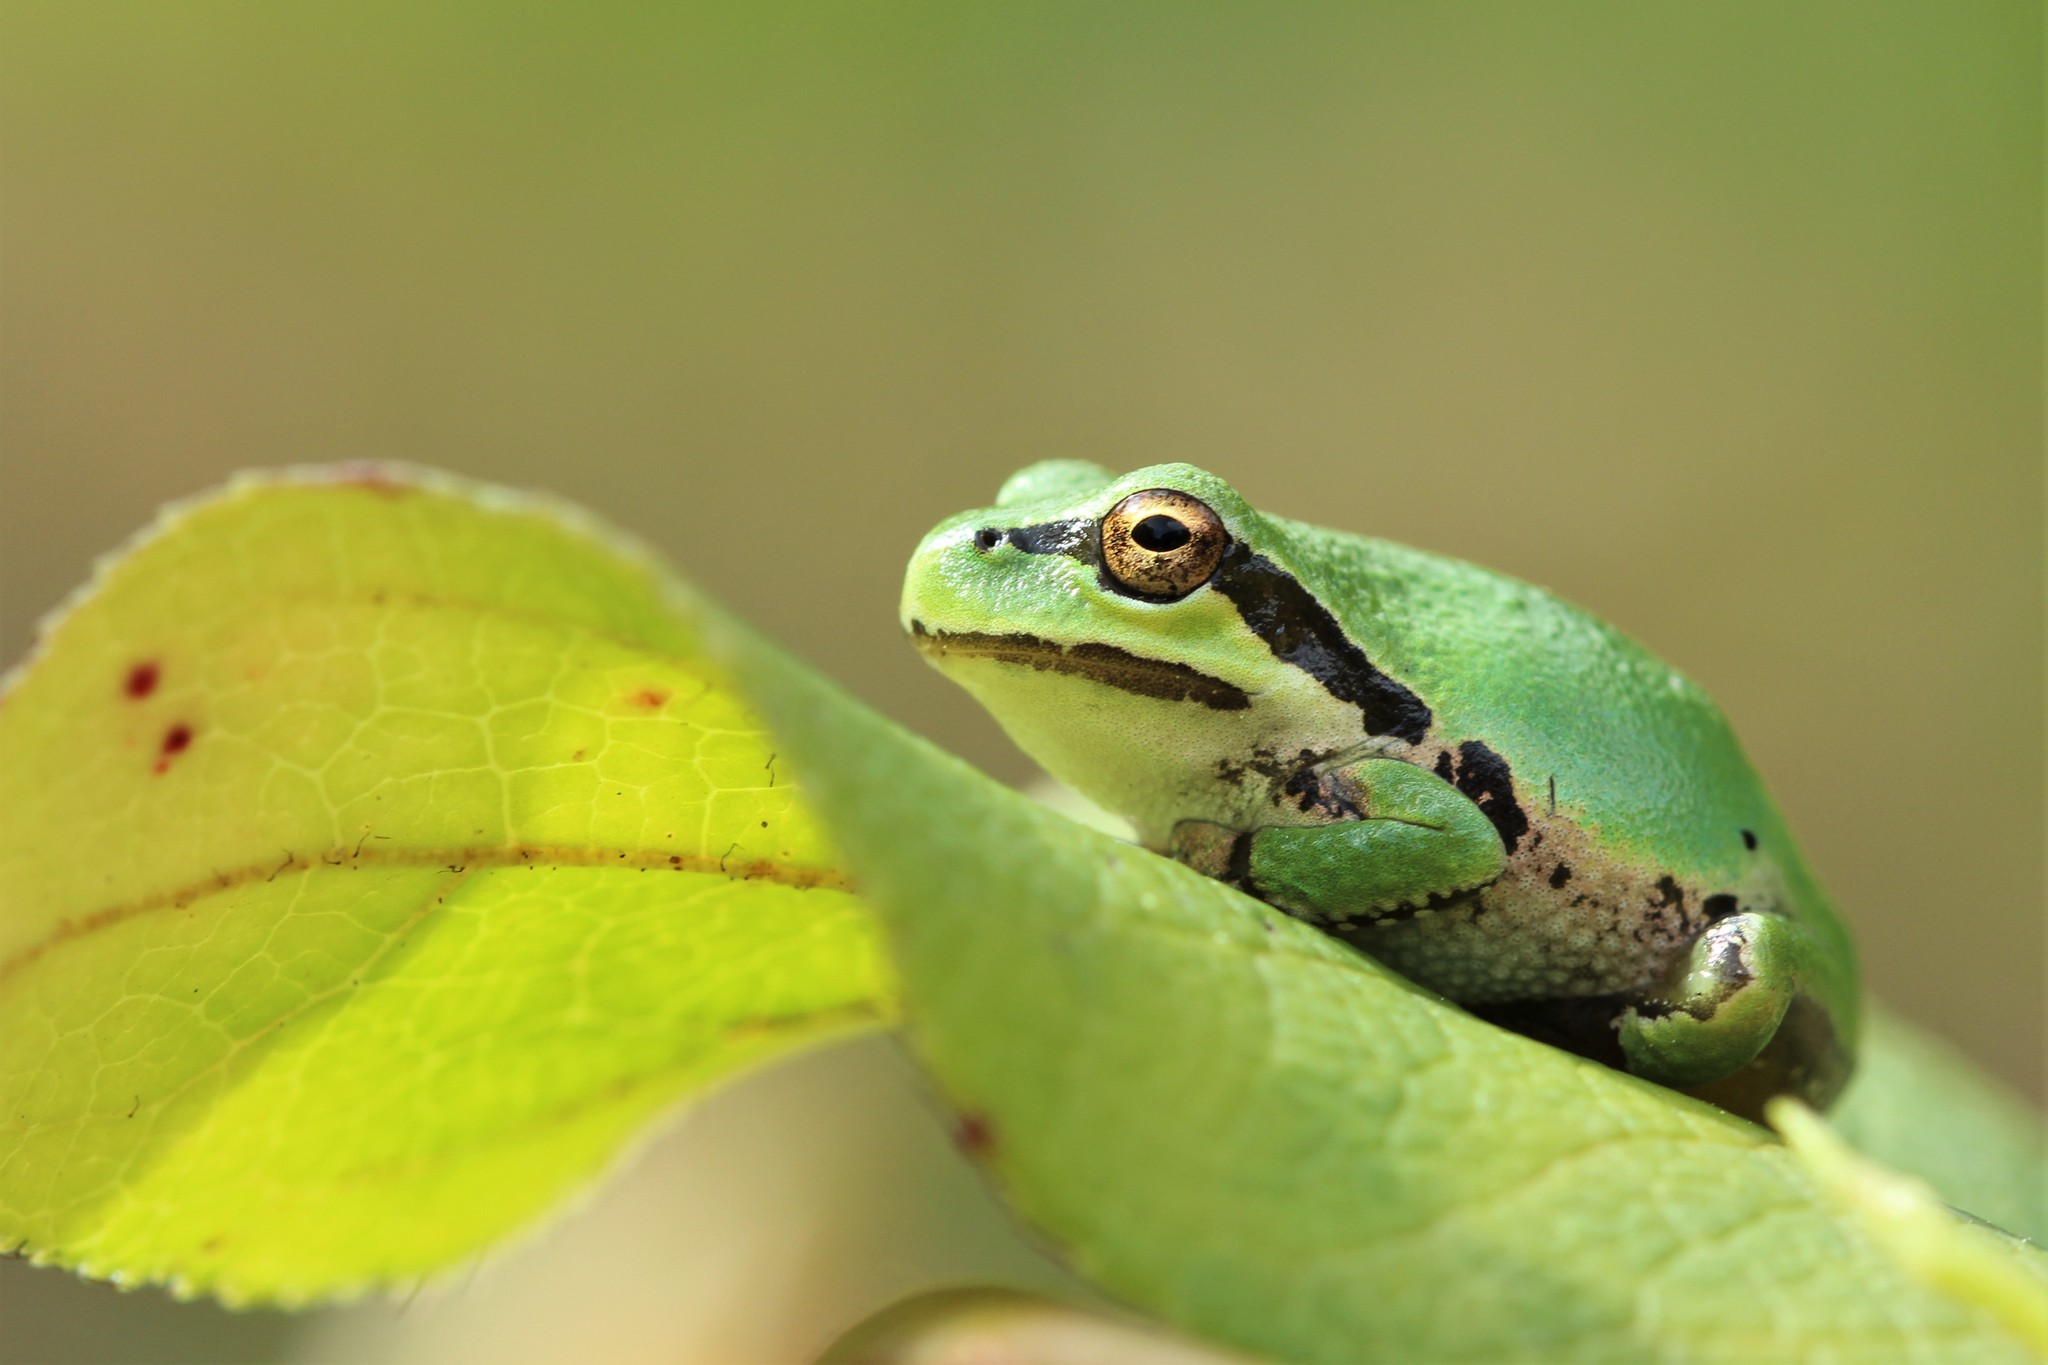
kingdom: Animalia
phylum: Chordata
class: Amphibia
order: Anura
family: Hylidae
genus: Pseudacris
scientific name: Pseudacris regilla
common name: Pacific chorus frog
